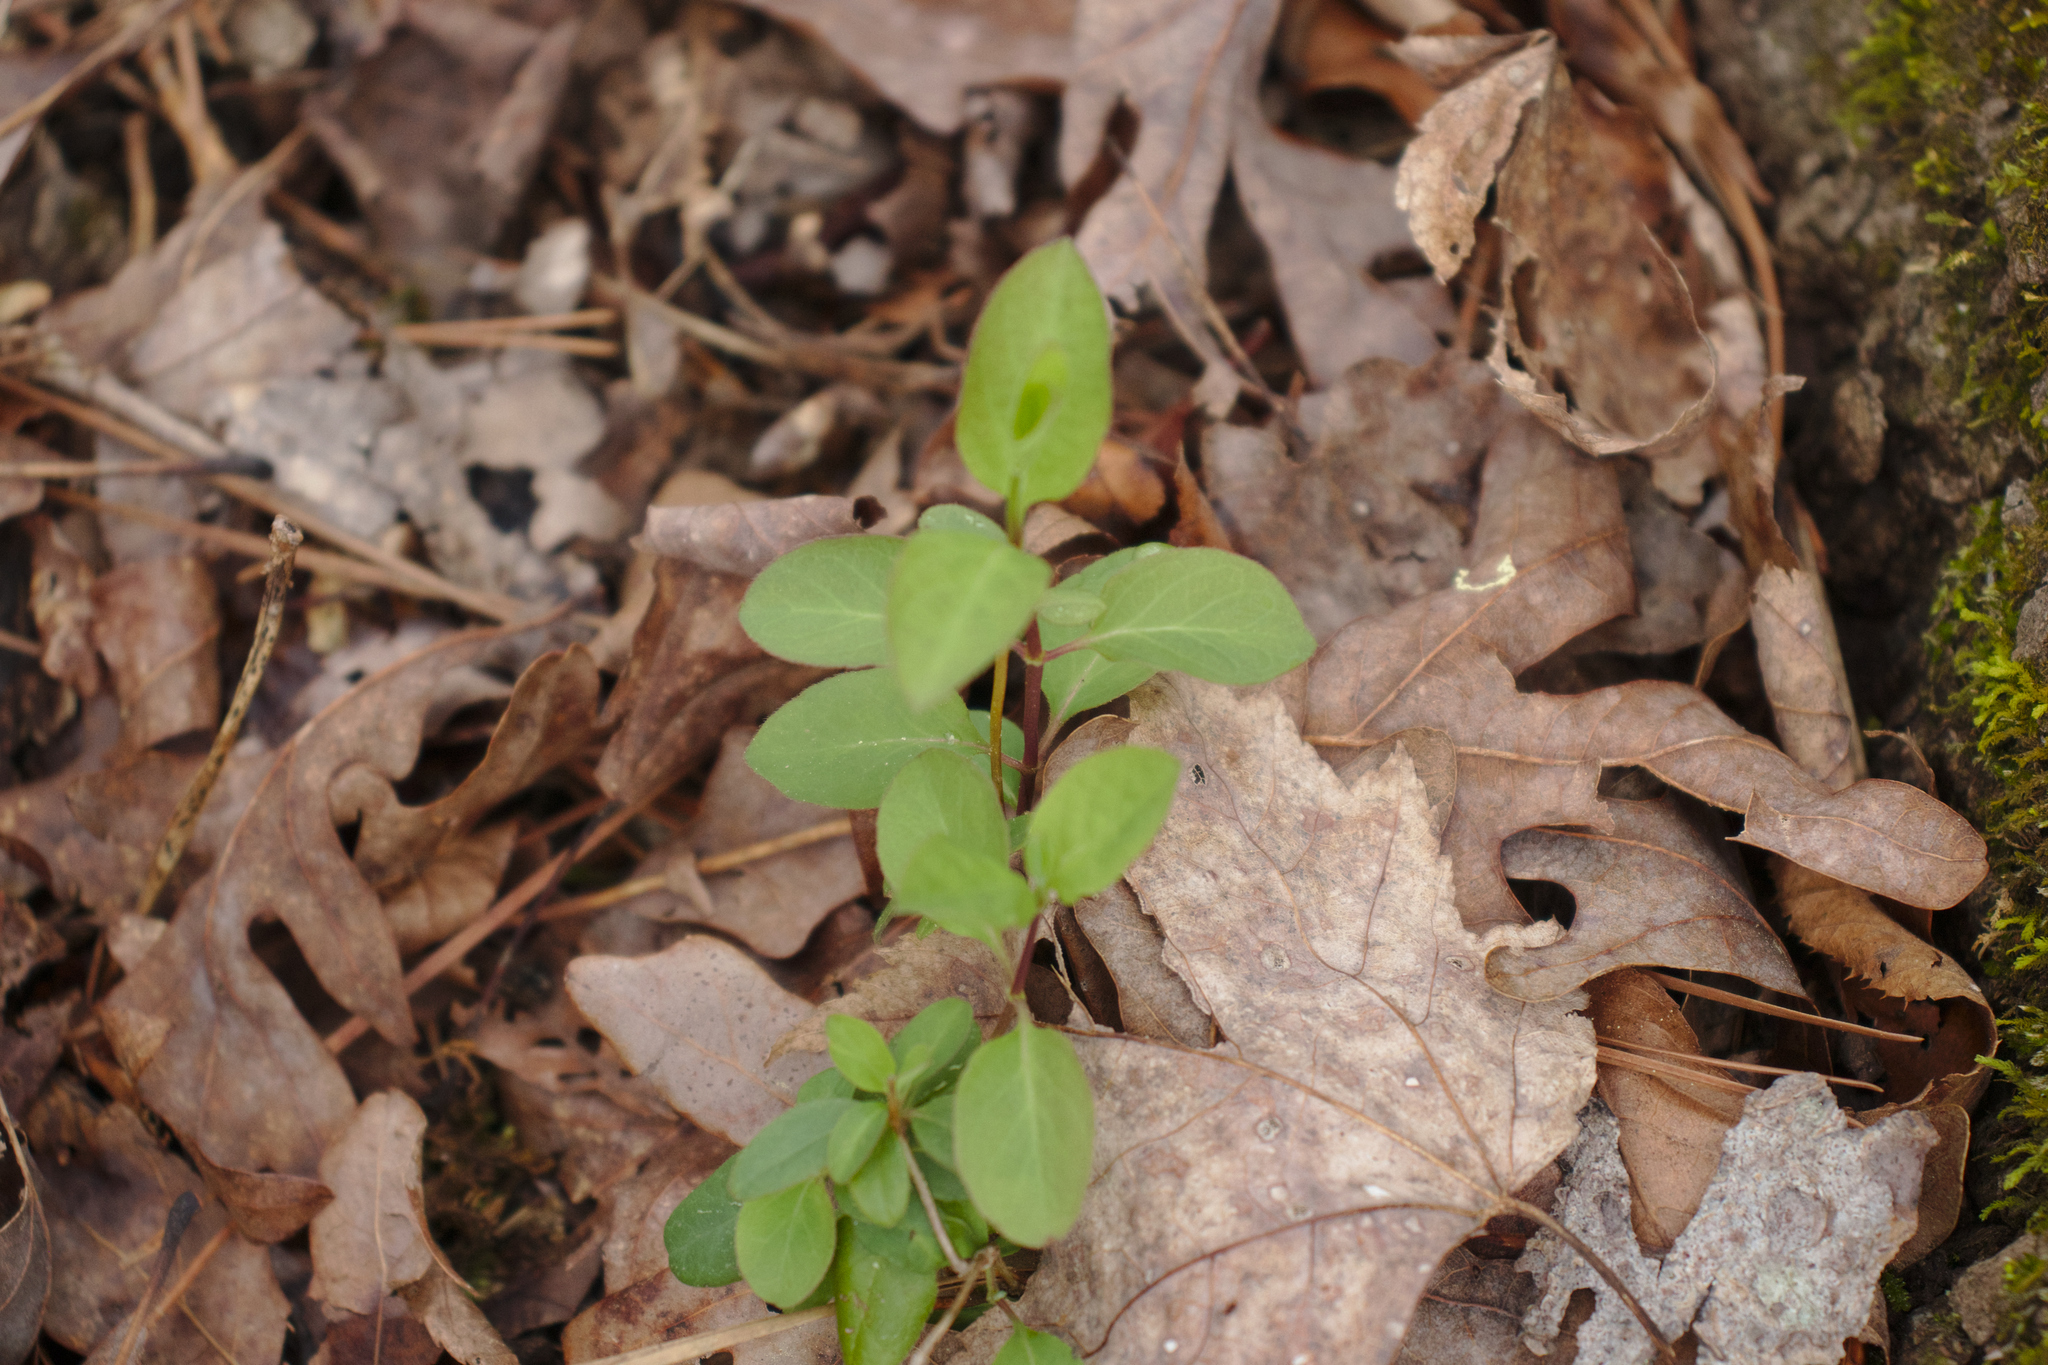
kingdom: Plantae
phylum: Tracheophyta
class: Magnoliopsida
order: Dipsacales
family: Caprifoliaceae
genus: Lonicera
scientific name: Lonicera japonica
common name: Japanese honeysuckle
